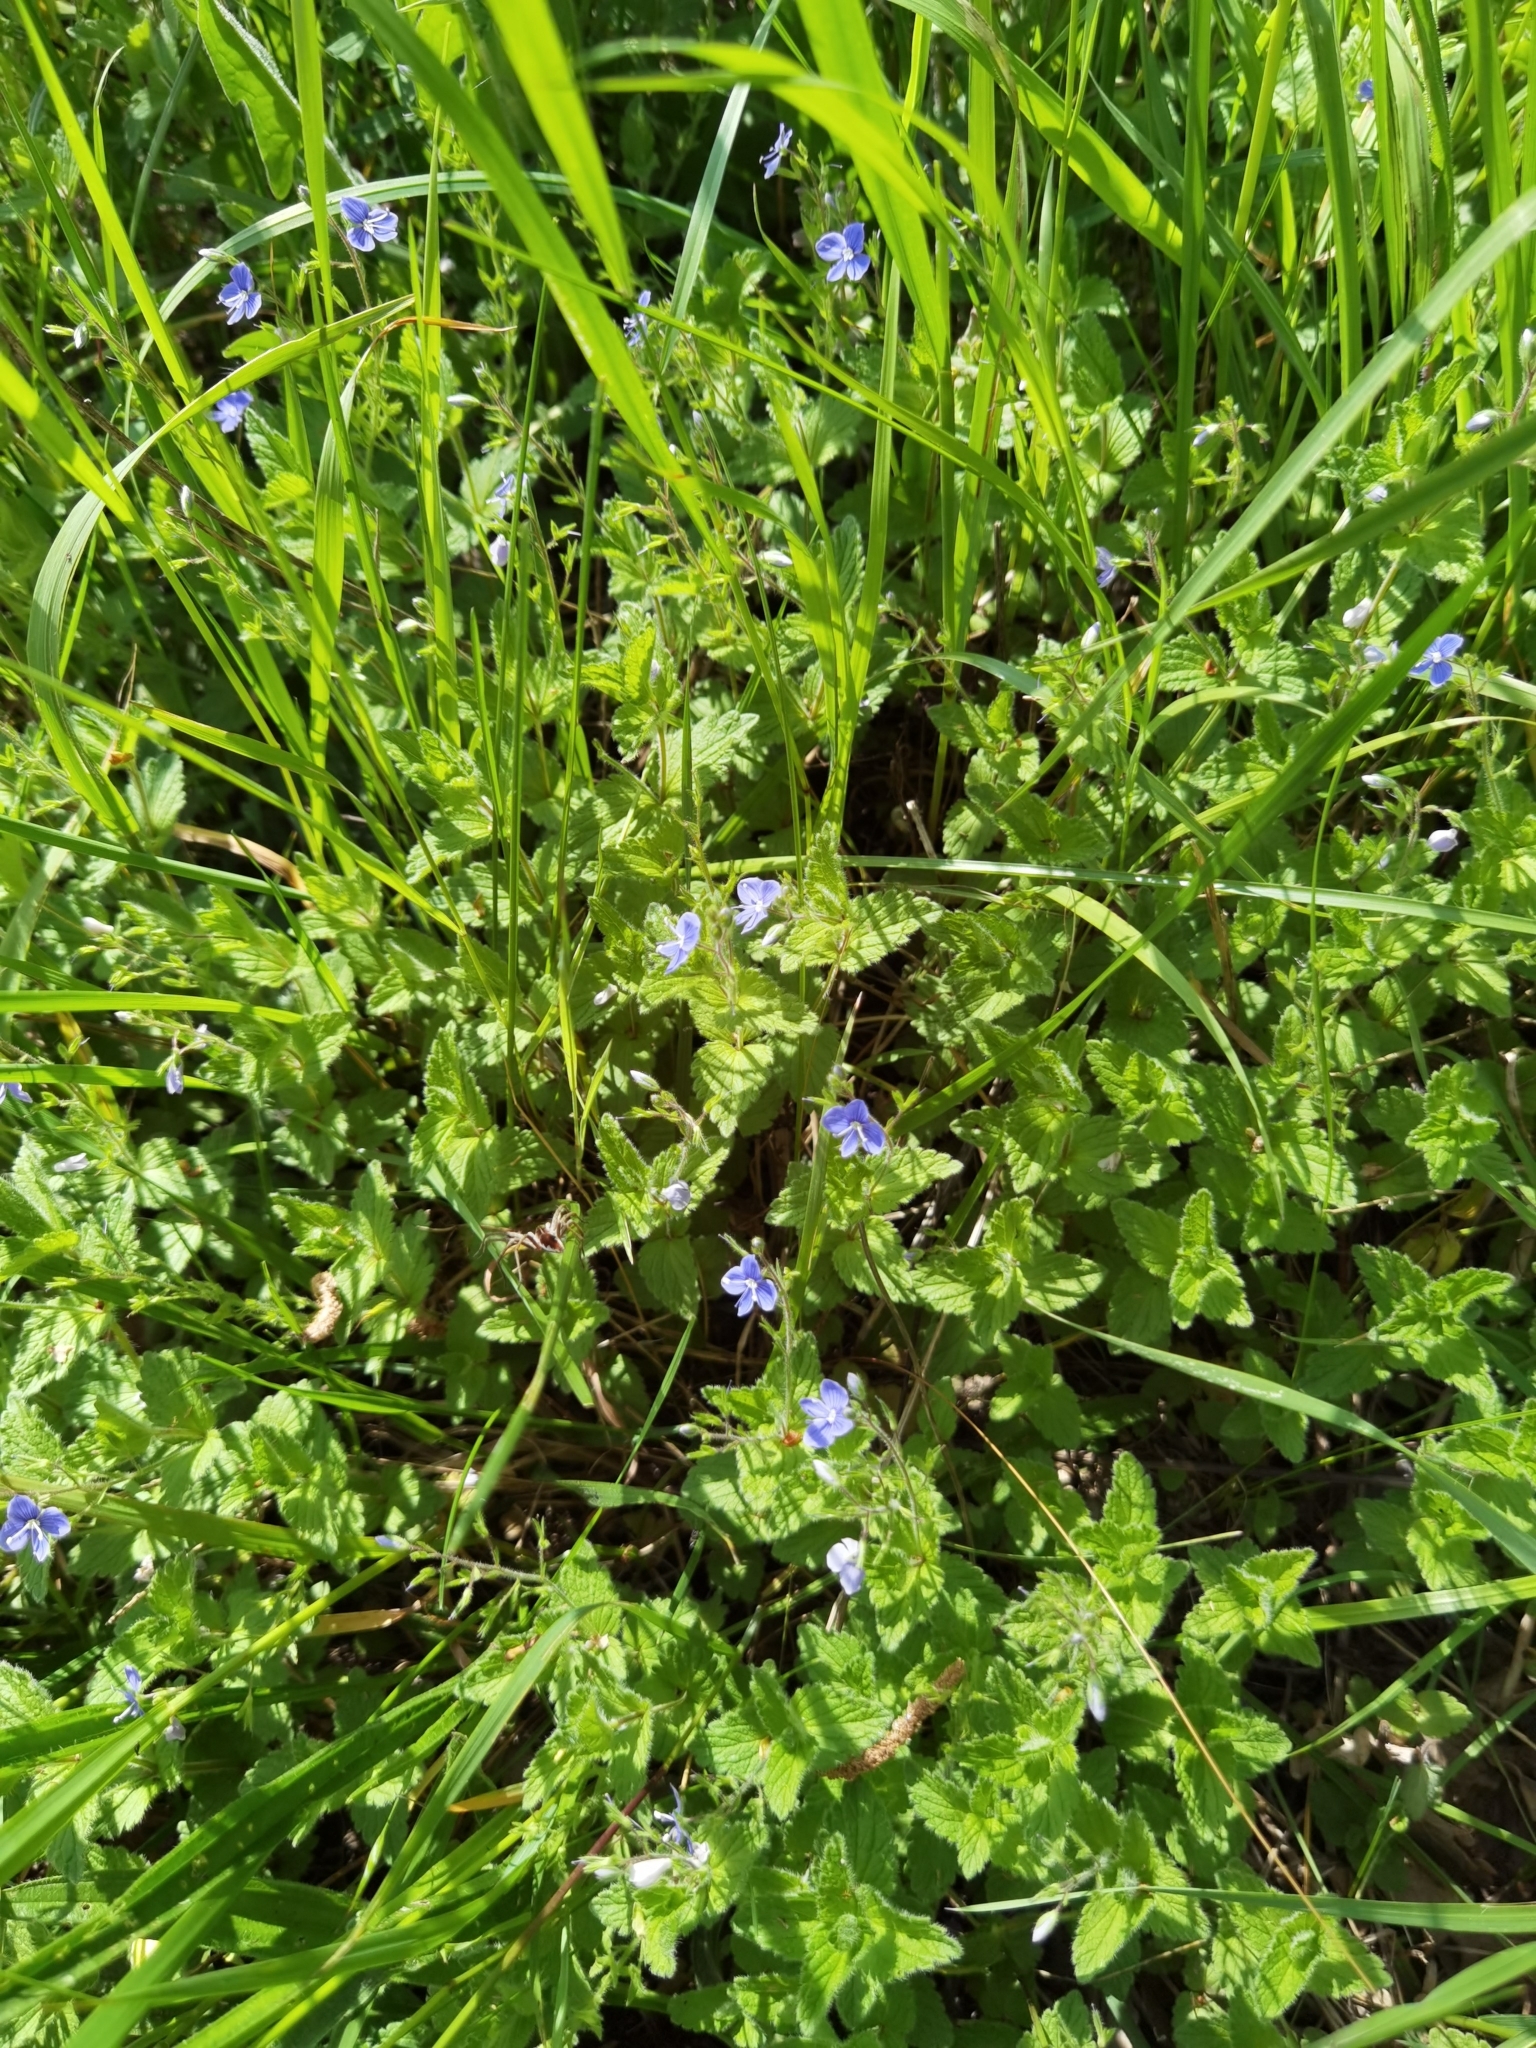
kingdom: Plantae
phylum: Tracheophyta
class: Magnoliopsida
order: Lamiales
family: Plantaginaceae
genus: Veronica
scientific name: Veronica chamaedrys
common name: Germander speedwell
